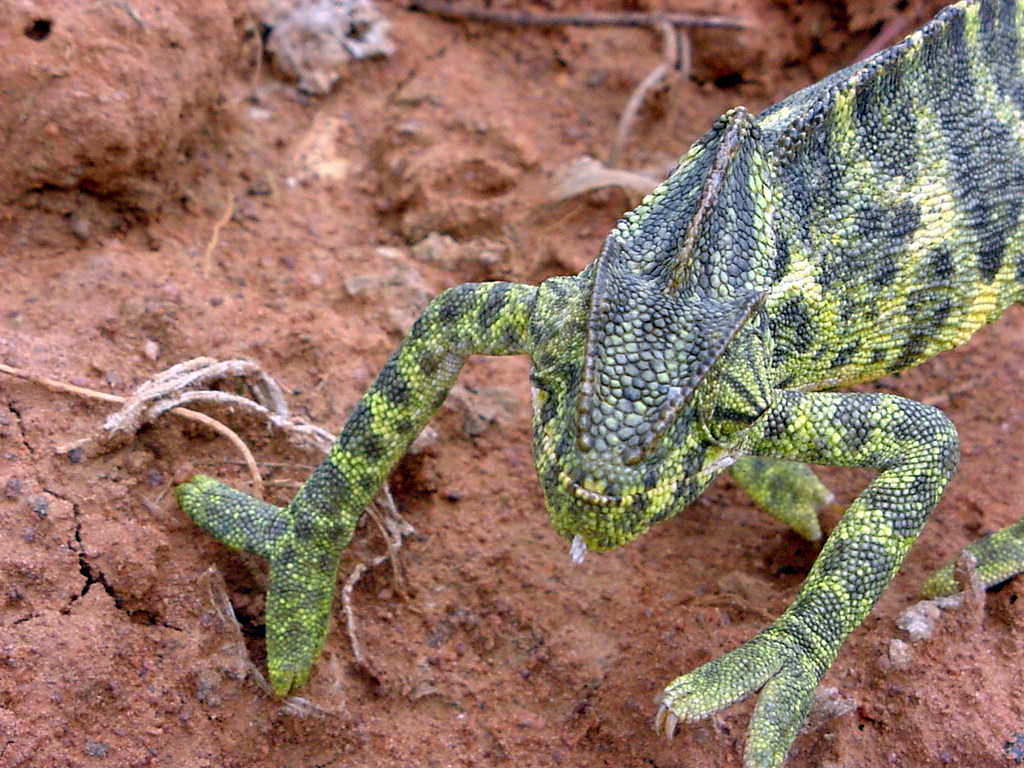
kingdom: Animalia
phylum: Chordata
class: Squamata
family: Chamaeleonidae
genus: Chamaeleo
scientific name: Chamaeleo zeylanicus
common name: Indian chameleon
